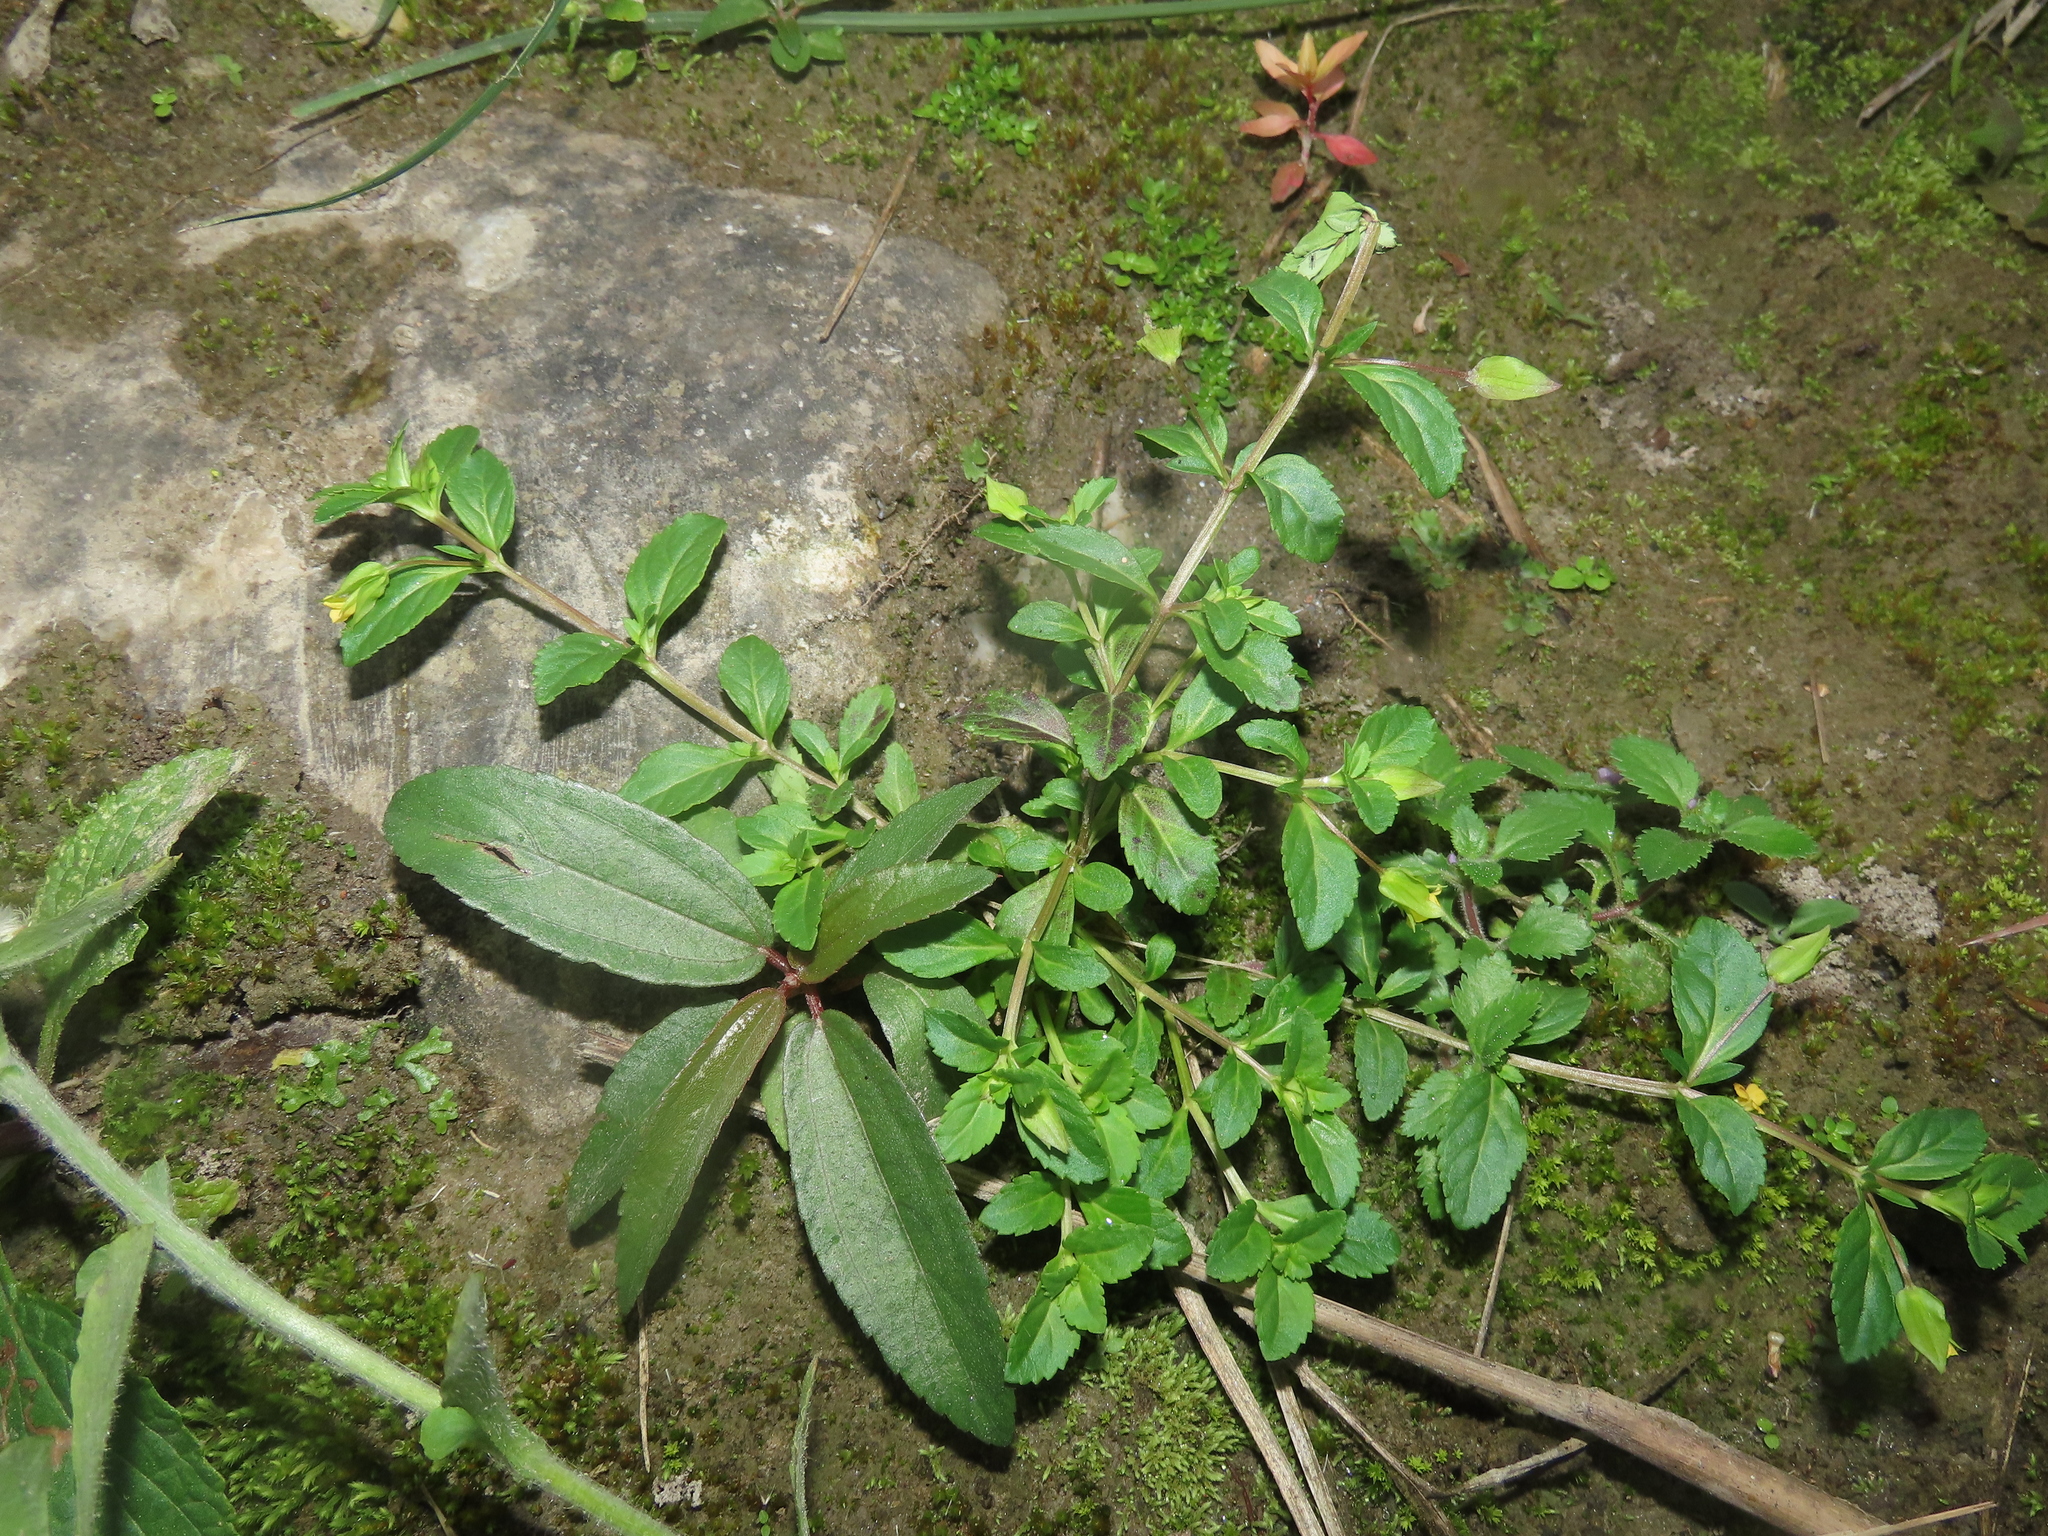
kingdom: Plantae
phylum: Tracheophyta
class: Magnoliopsida
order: Lamiales
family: Plantaginaceae
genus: Mecardonia
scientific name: Mecardonia procumbens
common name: Baby jump-up
